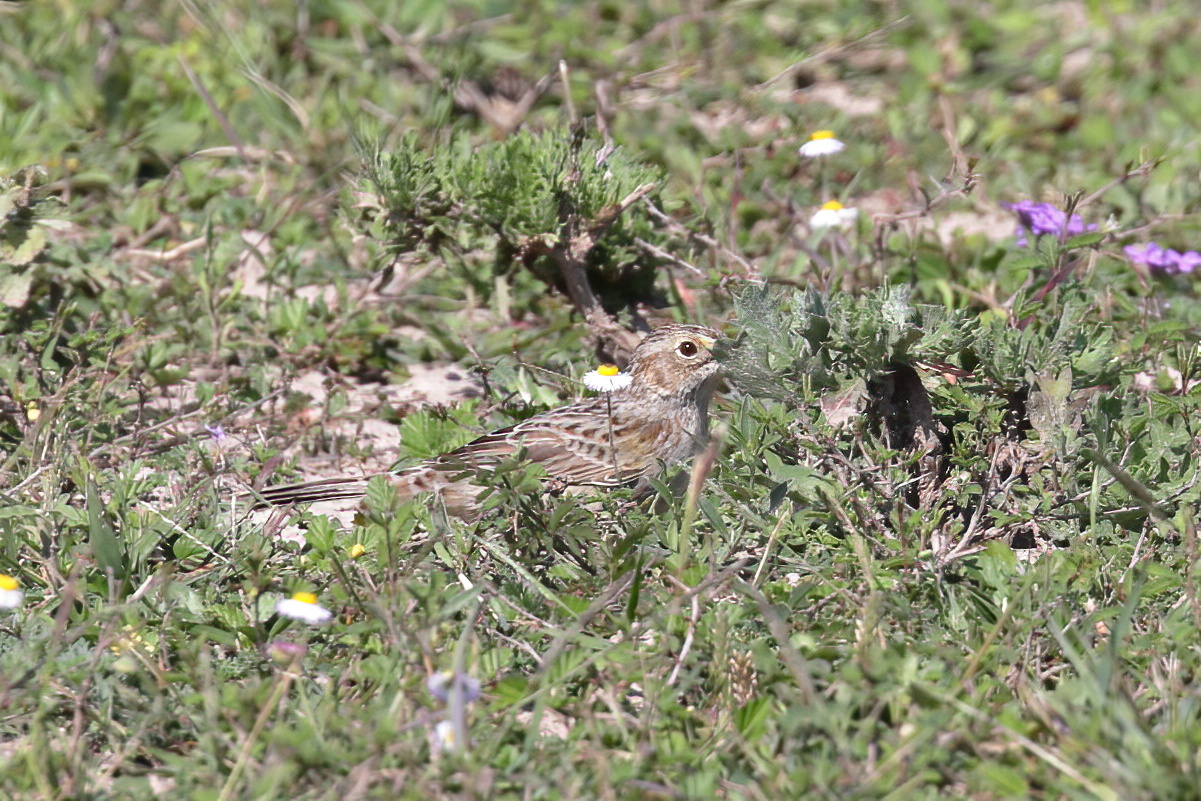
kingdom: Animalia
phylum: Chordata
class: Aves
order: Passeriformes
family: Passerellidae
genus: Peucaea
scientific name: Peucaea cassinii
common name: Cassin's sparrow
